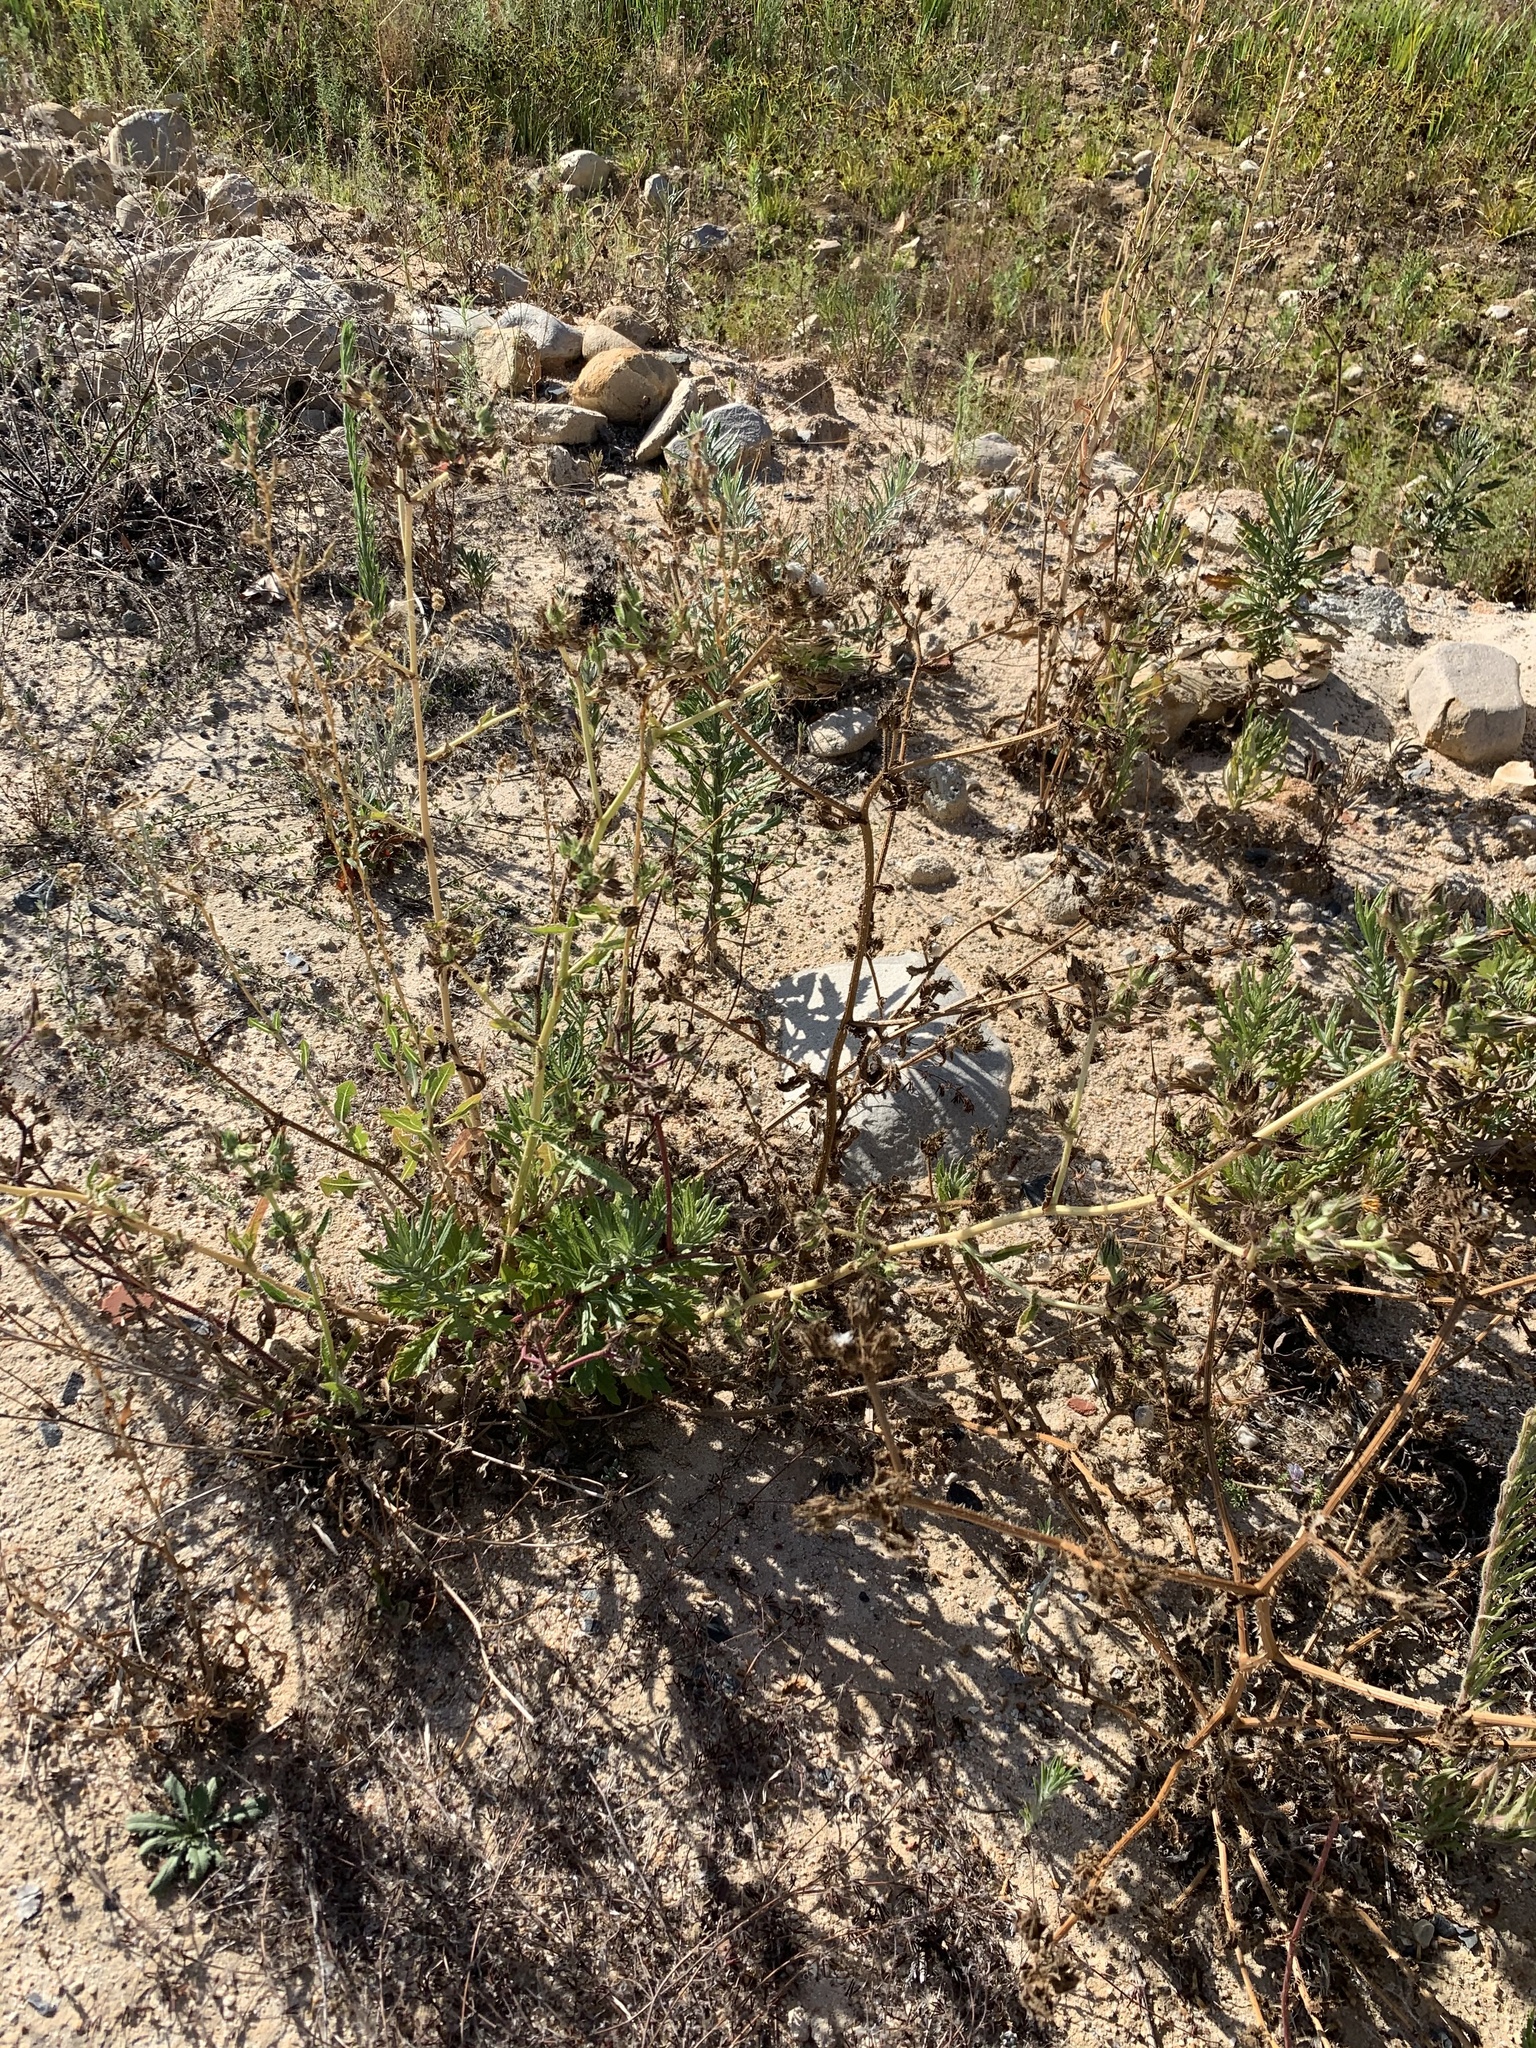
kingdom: Plantae
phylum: Tracheophyta
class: Magnoliopsida
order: Asterales
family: Asteraceae
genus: Helminthotheca
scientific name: Helminthotheca echioides
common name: Ox-tongue
